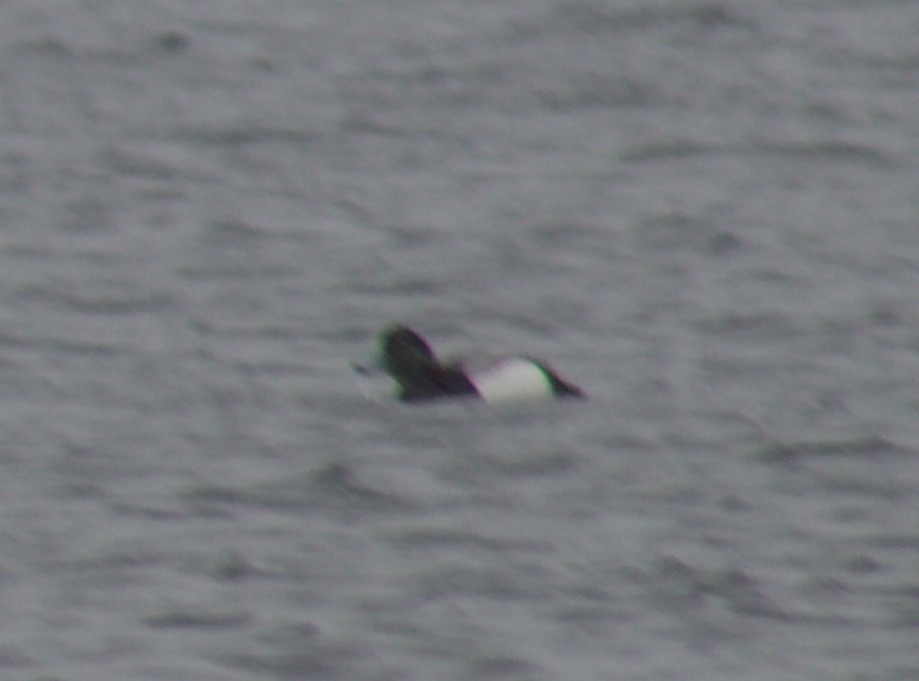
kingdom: Animalia
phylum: Chordata
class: Aves
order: Anseriformes
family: Anatidae
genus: Aythya
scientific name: Aythya marila
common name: Greater scaup
